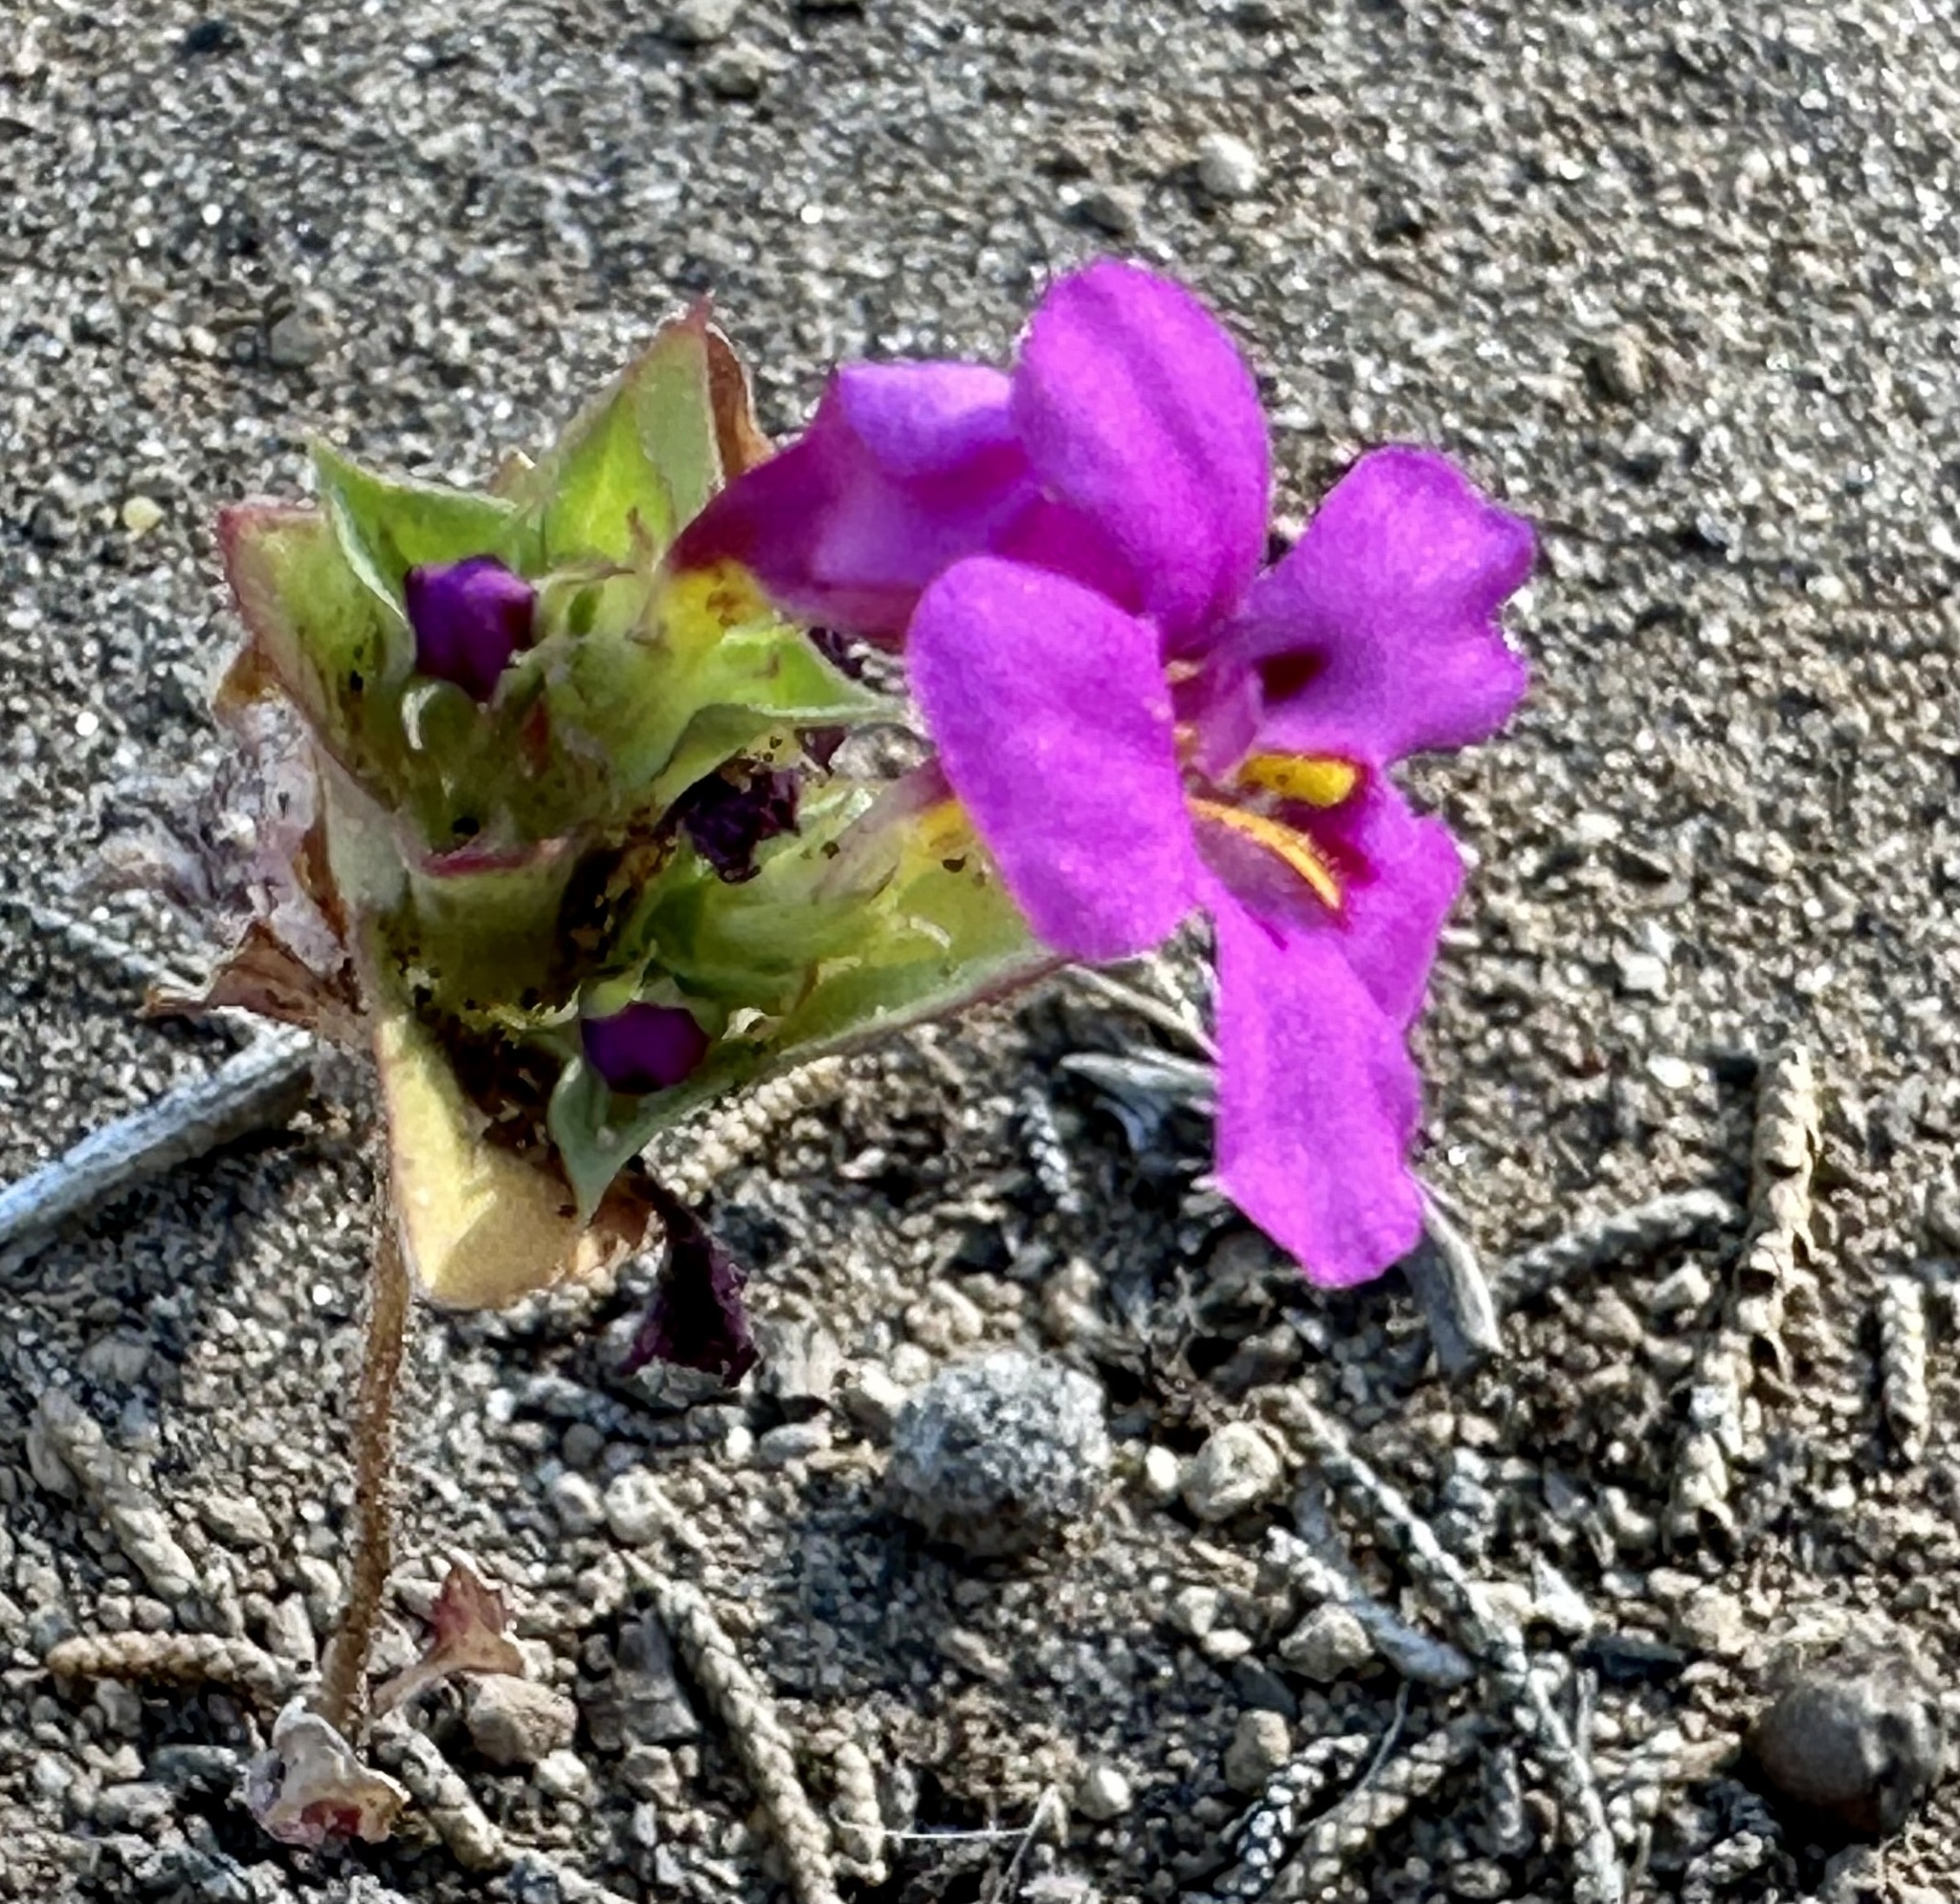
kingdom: Plantae
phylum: Tracheophyta
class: Magnoliopsida
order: Lamiales
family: Phrymaceae
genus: Diplacus
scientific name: Diplacus deschutesensis
